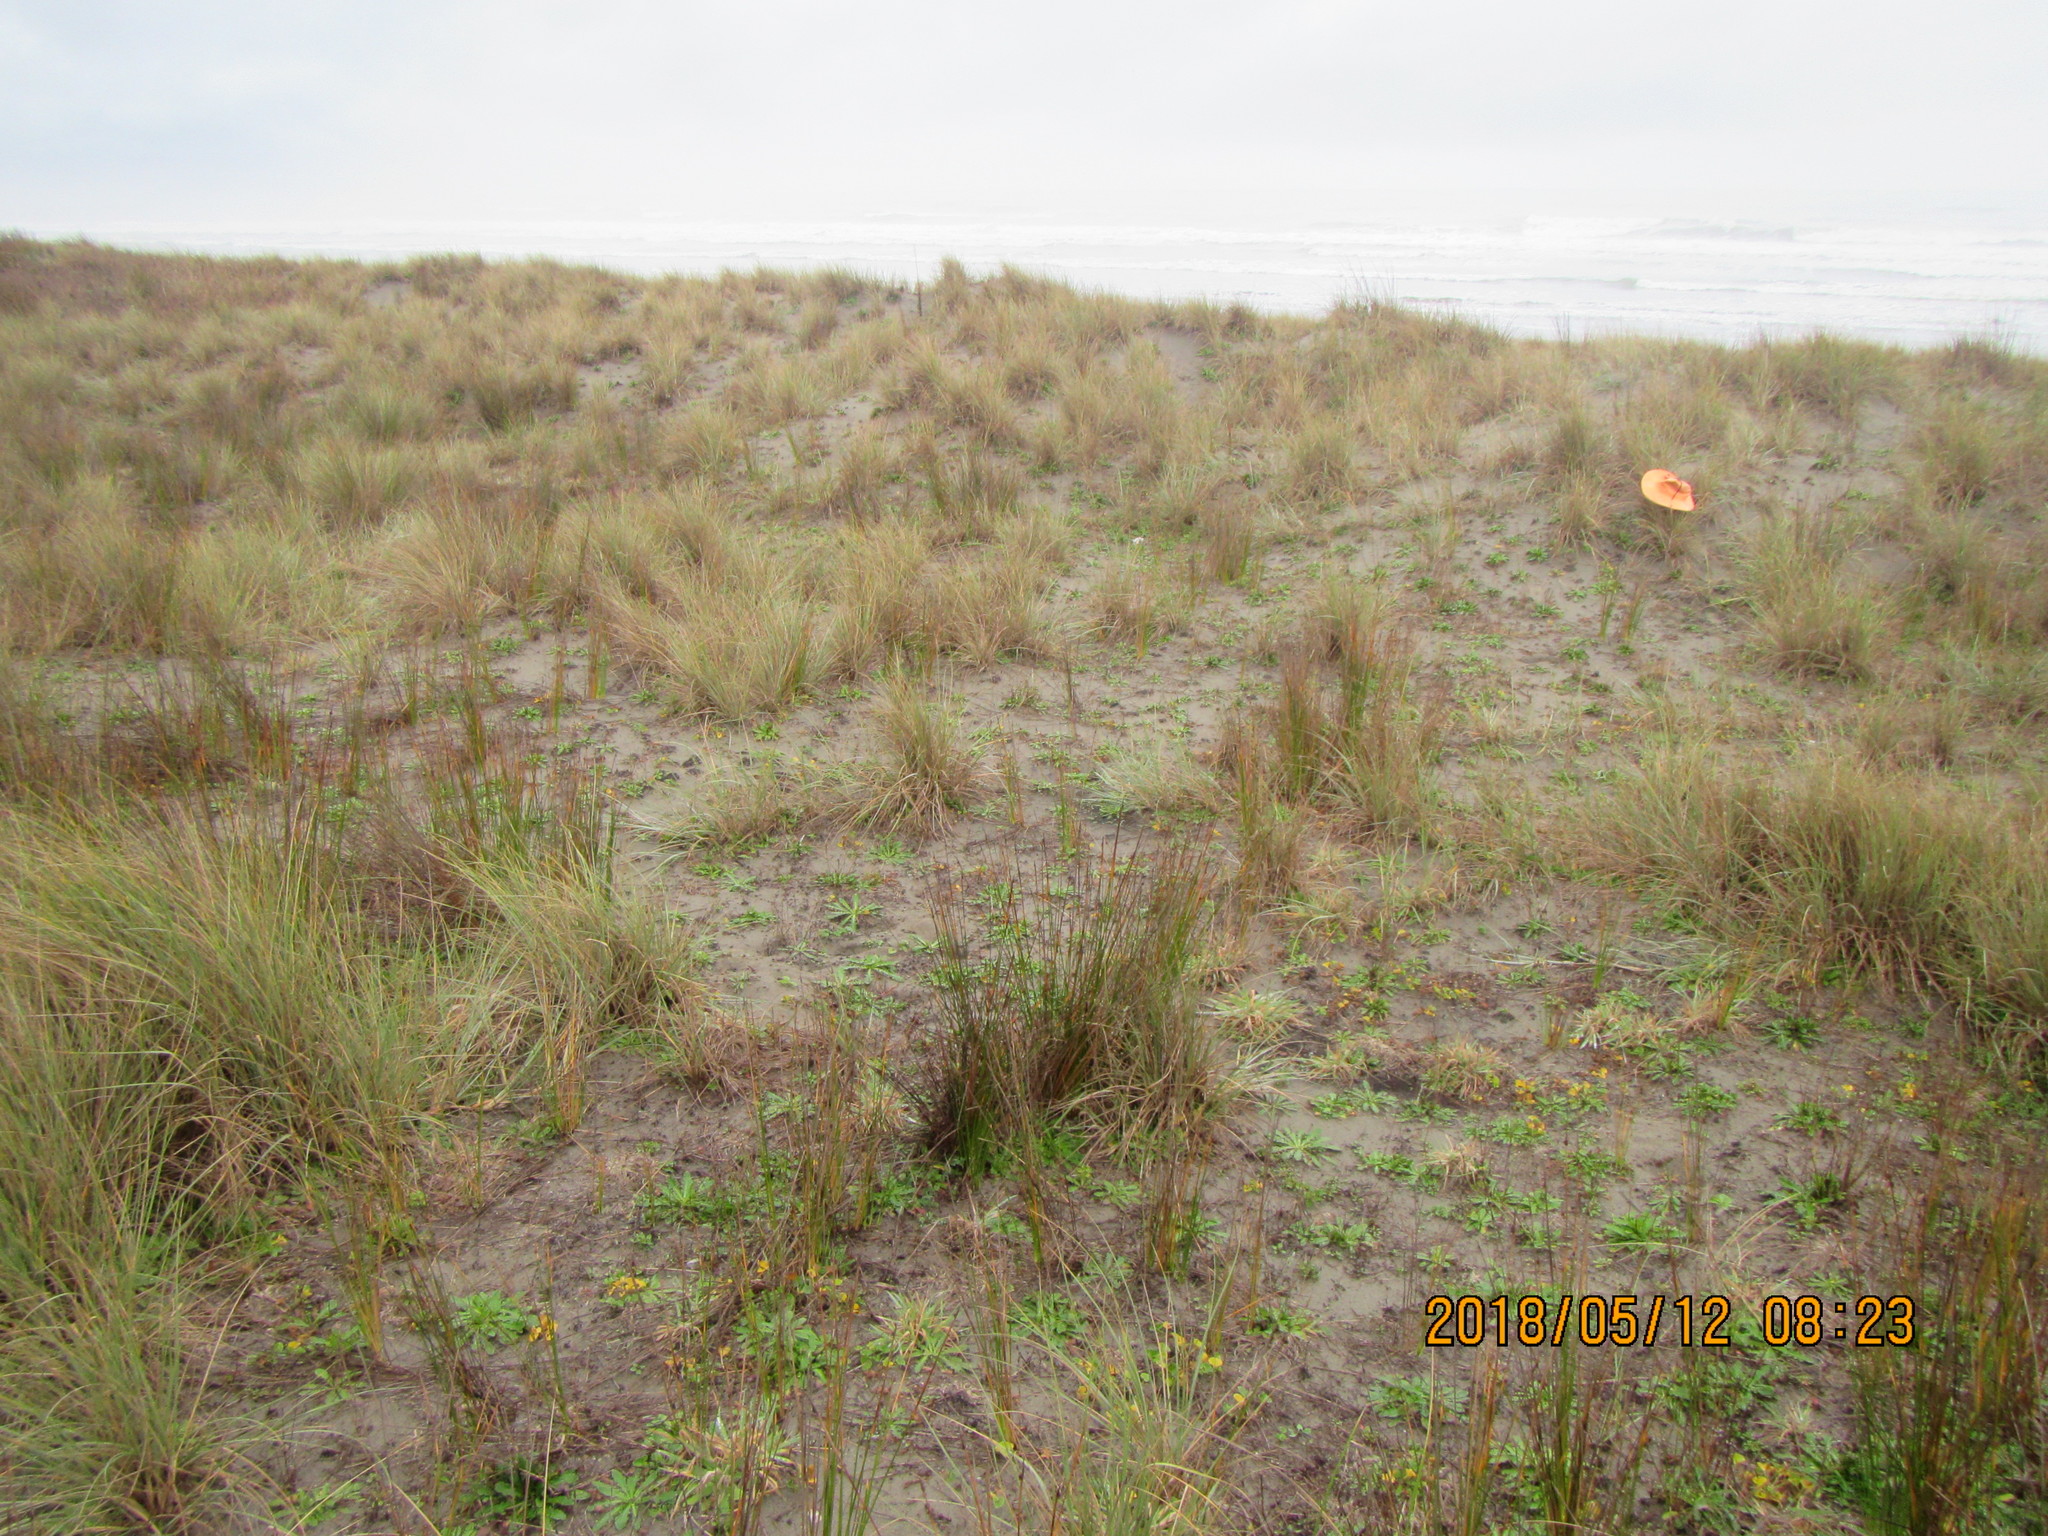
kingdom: Animalia
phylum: Arthropoda
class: Arachnida
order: Araneae
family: Theridiidae
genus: Latrodectus
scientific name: Latrodectus katipo
